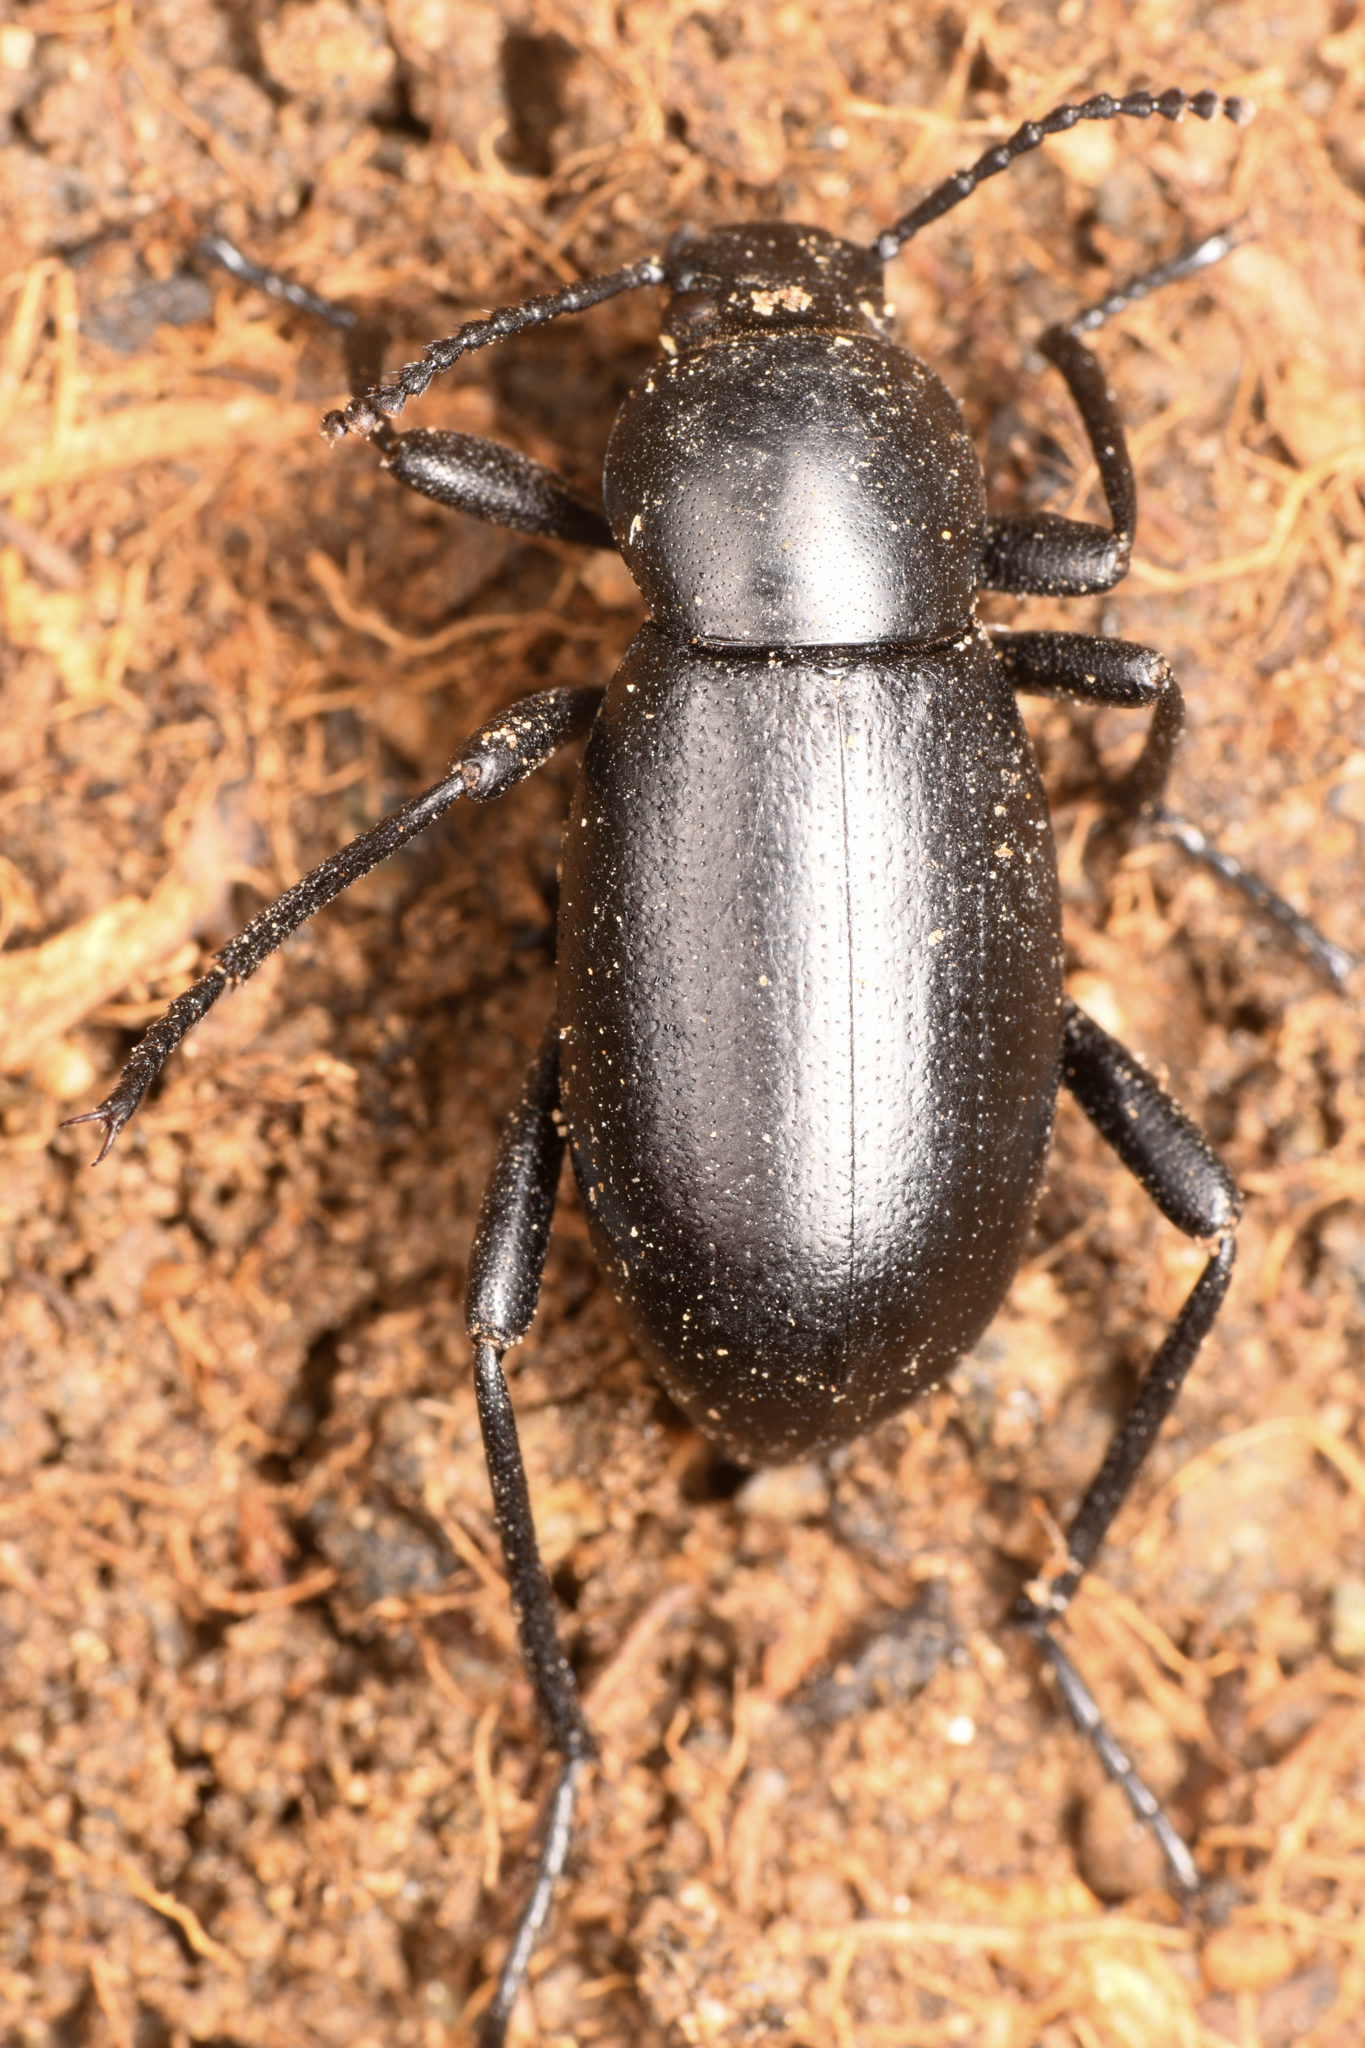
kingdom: Animalia
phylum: Arthropoda
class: Insecta
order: Coleoptera
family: Tenebrionidae
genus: Eleodes
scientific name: Eleodes carbonaria
